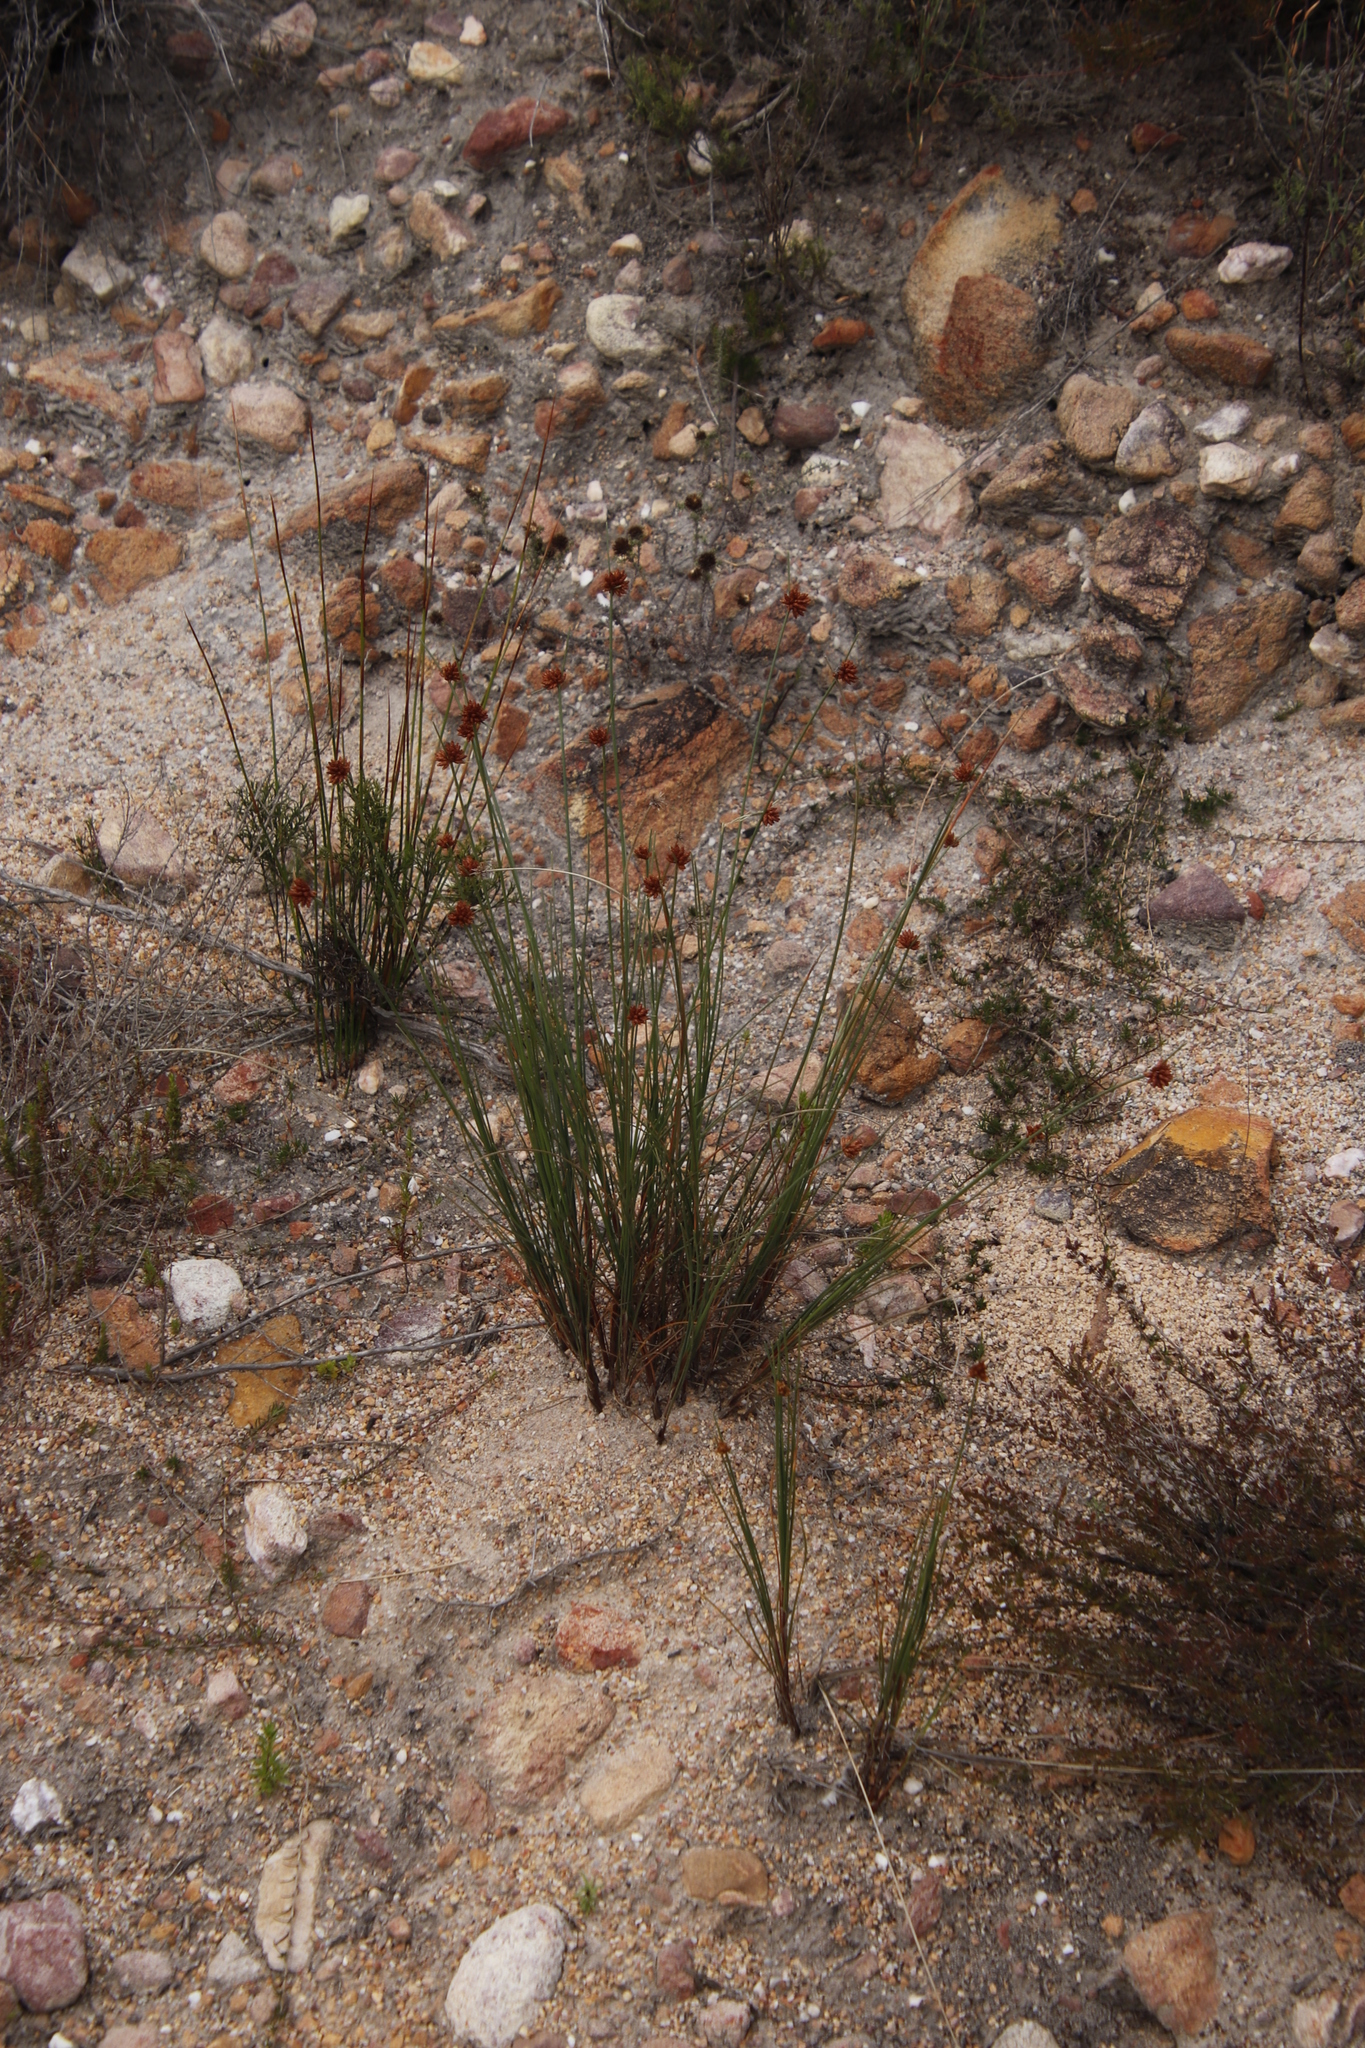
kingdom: Plantae
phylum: Tracheophyta
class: Liliopsida
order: Poales
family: Cyperaceae
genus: Ficinia
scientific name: Ficinia nodosa
